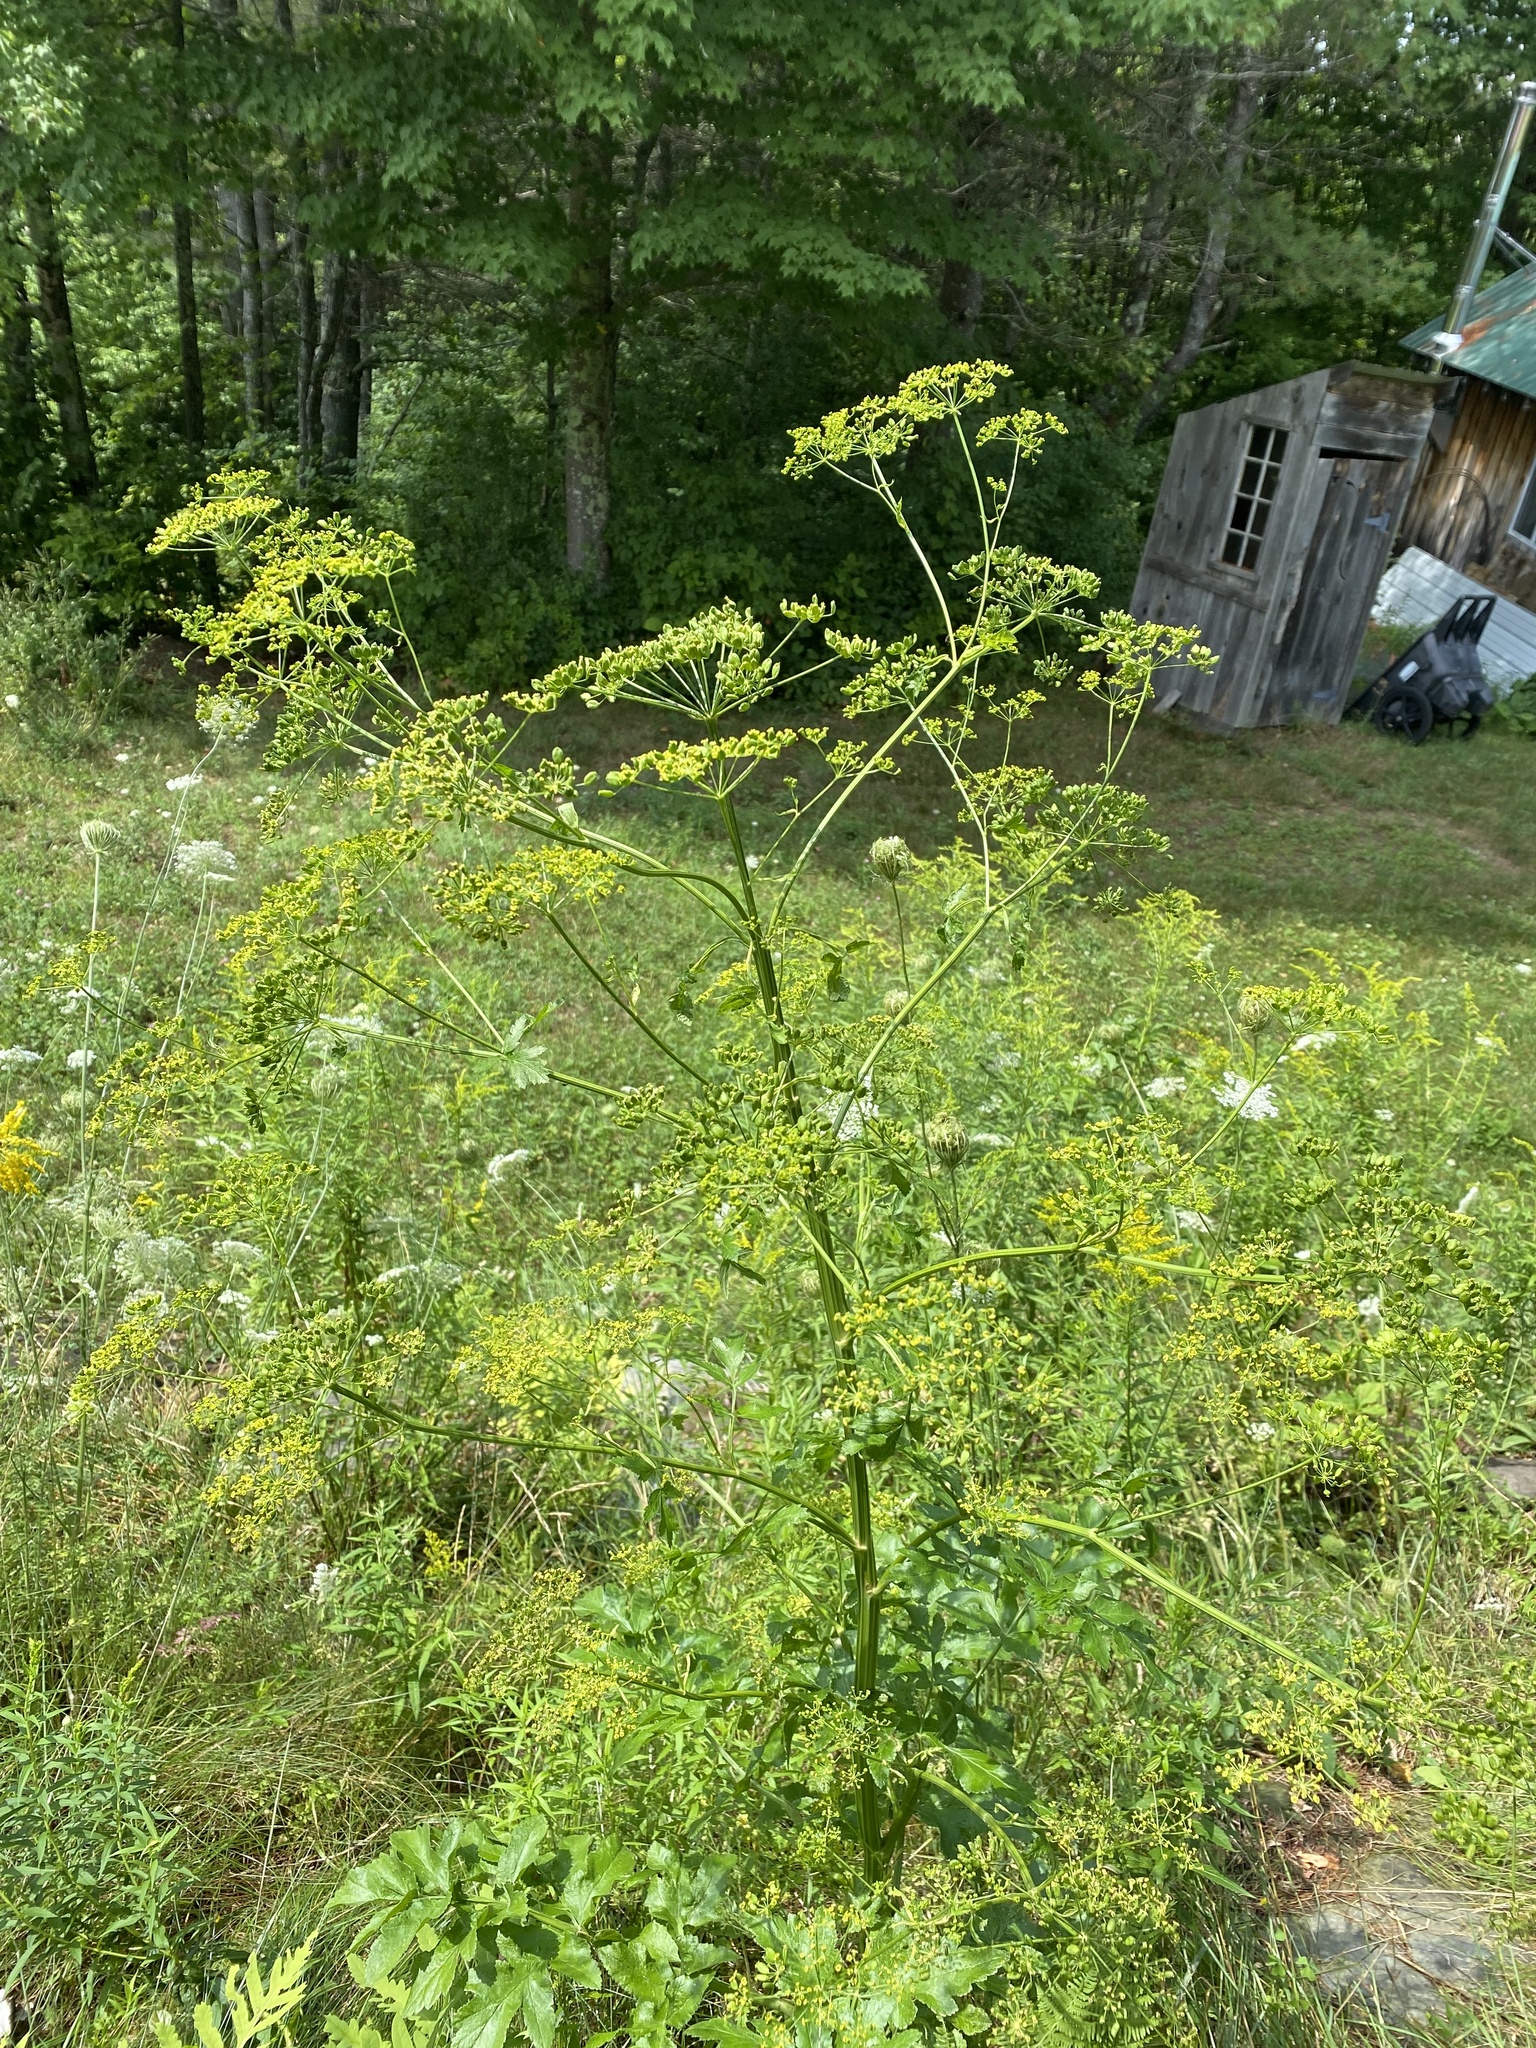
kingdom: Plantae
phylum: Tracheophyta
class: Magnoliopsida
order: Apiales
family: Apiaceae
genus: Pastinaca
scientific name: Pastinaca sativa
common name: Wild parsnip
